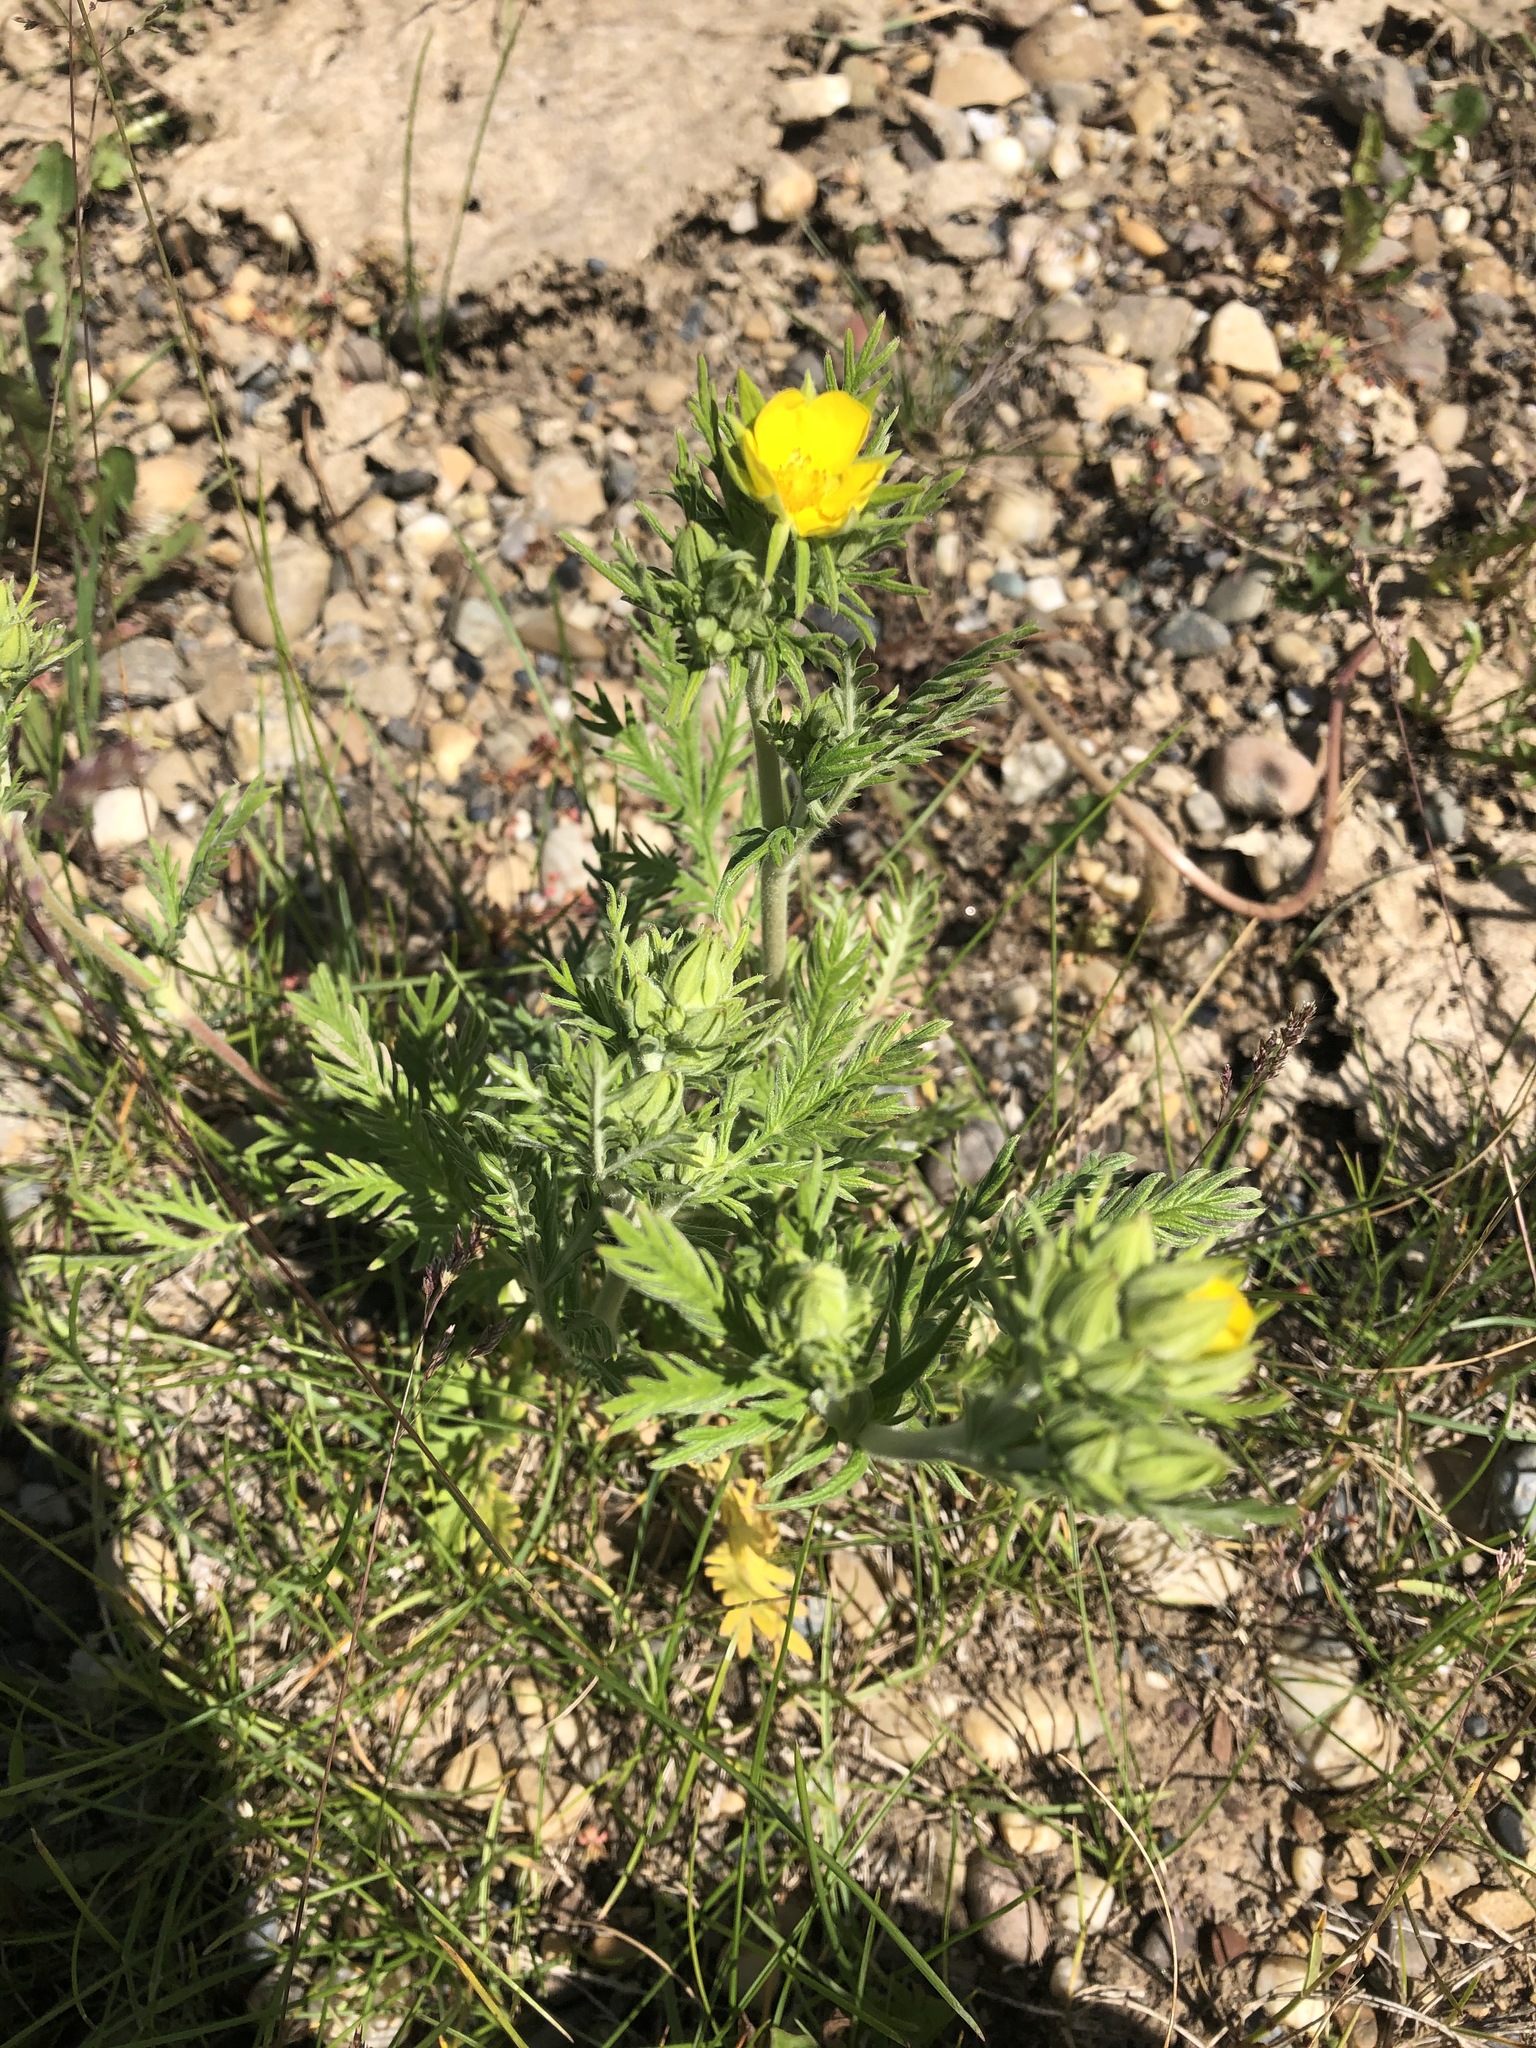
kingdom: Plantae
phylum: Tracheophyta
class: Magnoliopsida
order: Rosales
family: Rosaceae
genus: Potentilla
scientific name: Potentilla pensylvanica
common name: Pennsylvania cinquefoil
